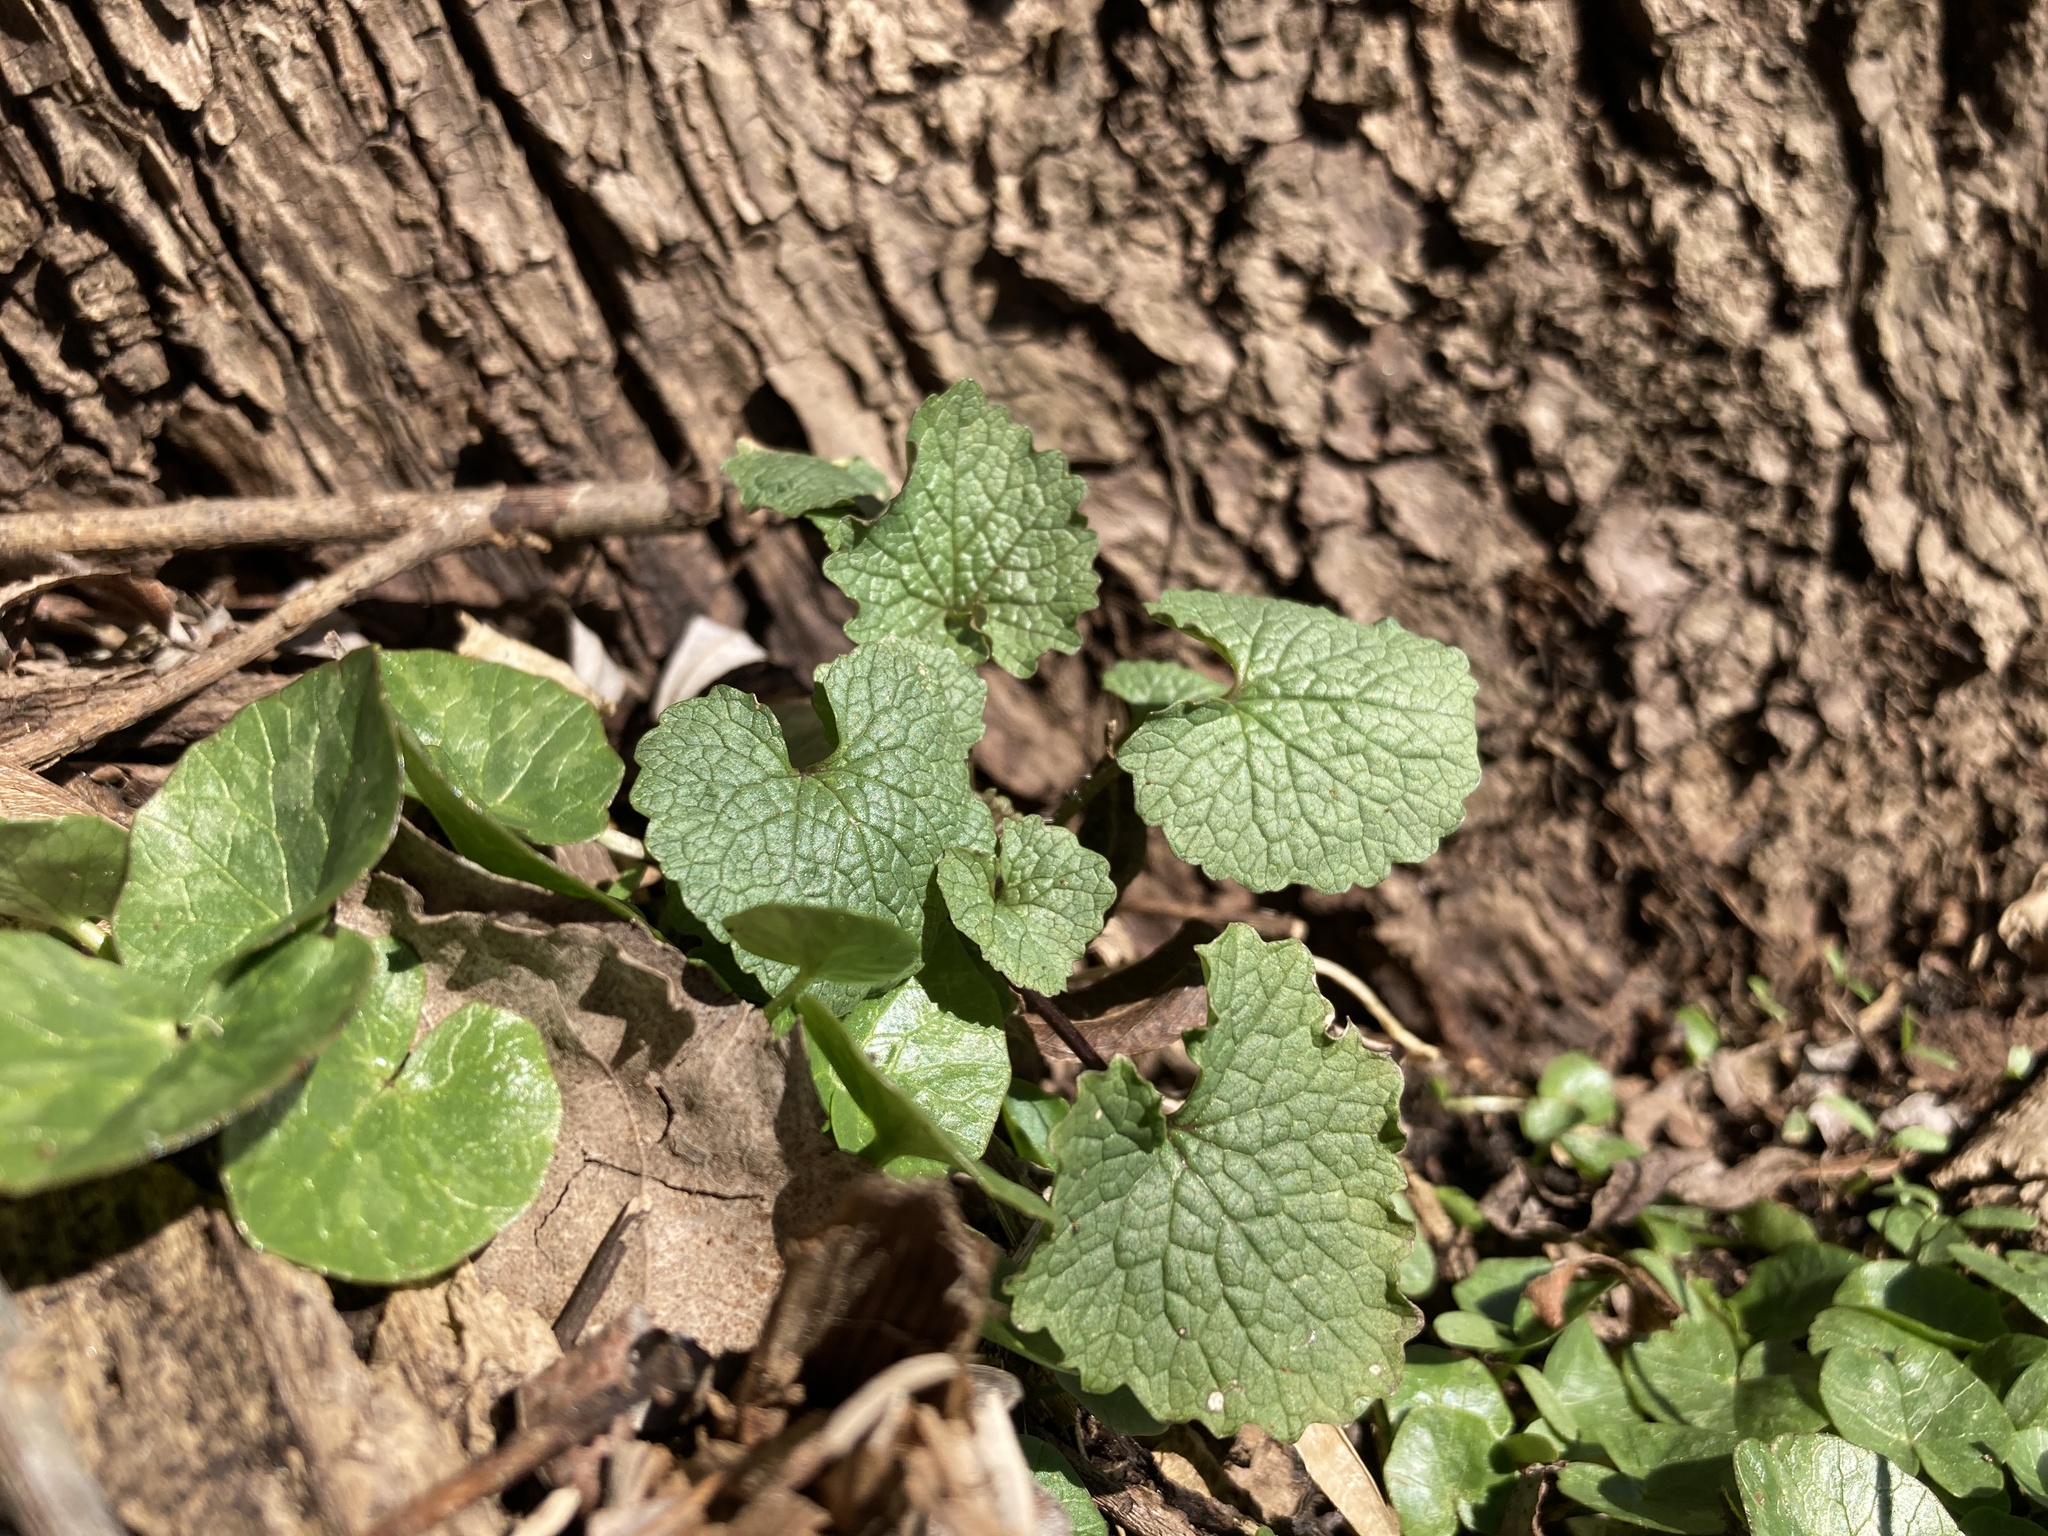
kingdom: Plantae
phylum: Tracheophyta
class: Magnoliopsida
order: Brassicales
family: Brassicaceae
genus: Alliaria
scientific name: Alliaria petiolata
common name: Garlic mustard
